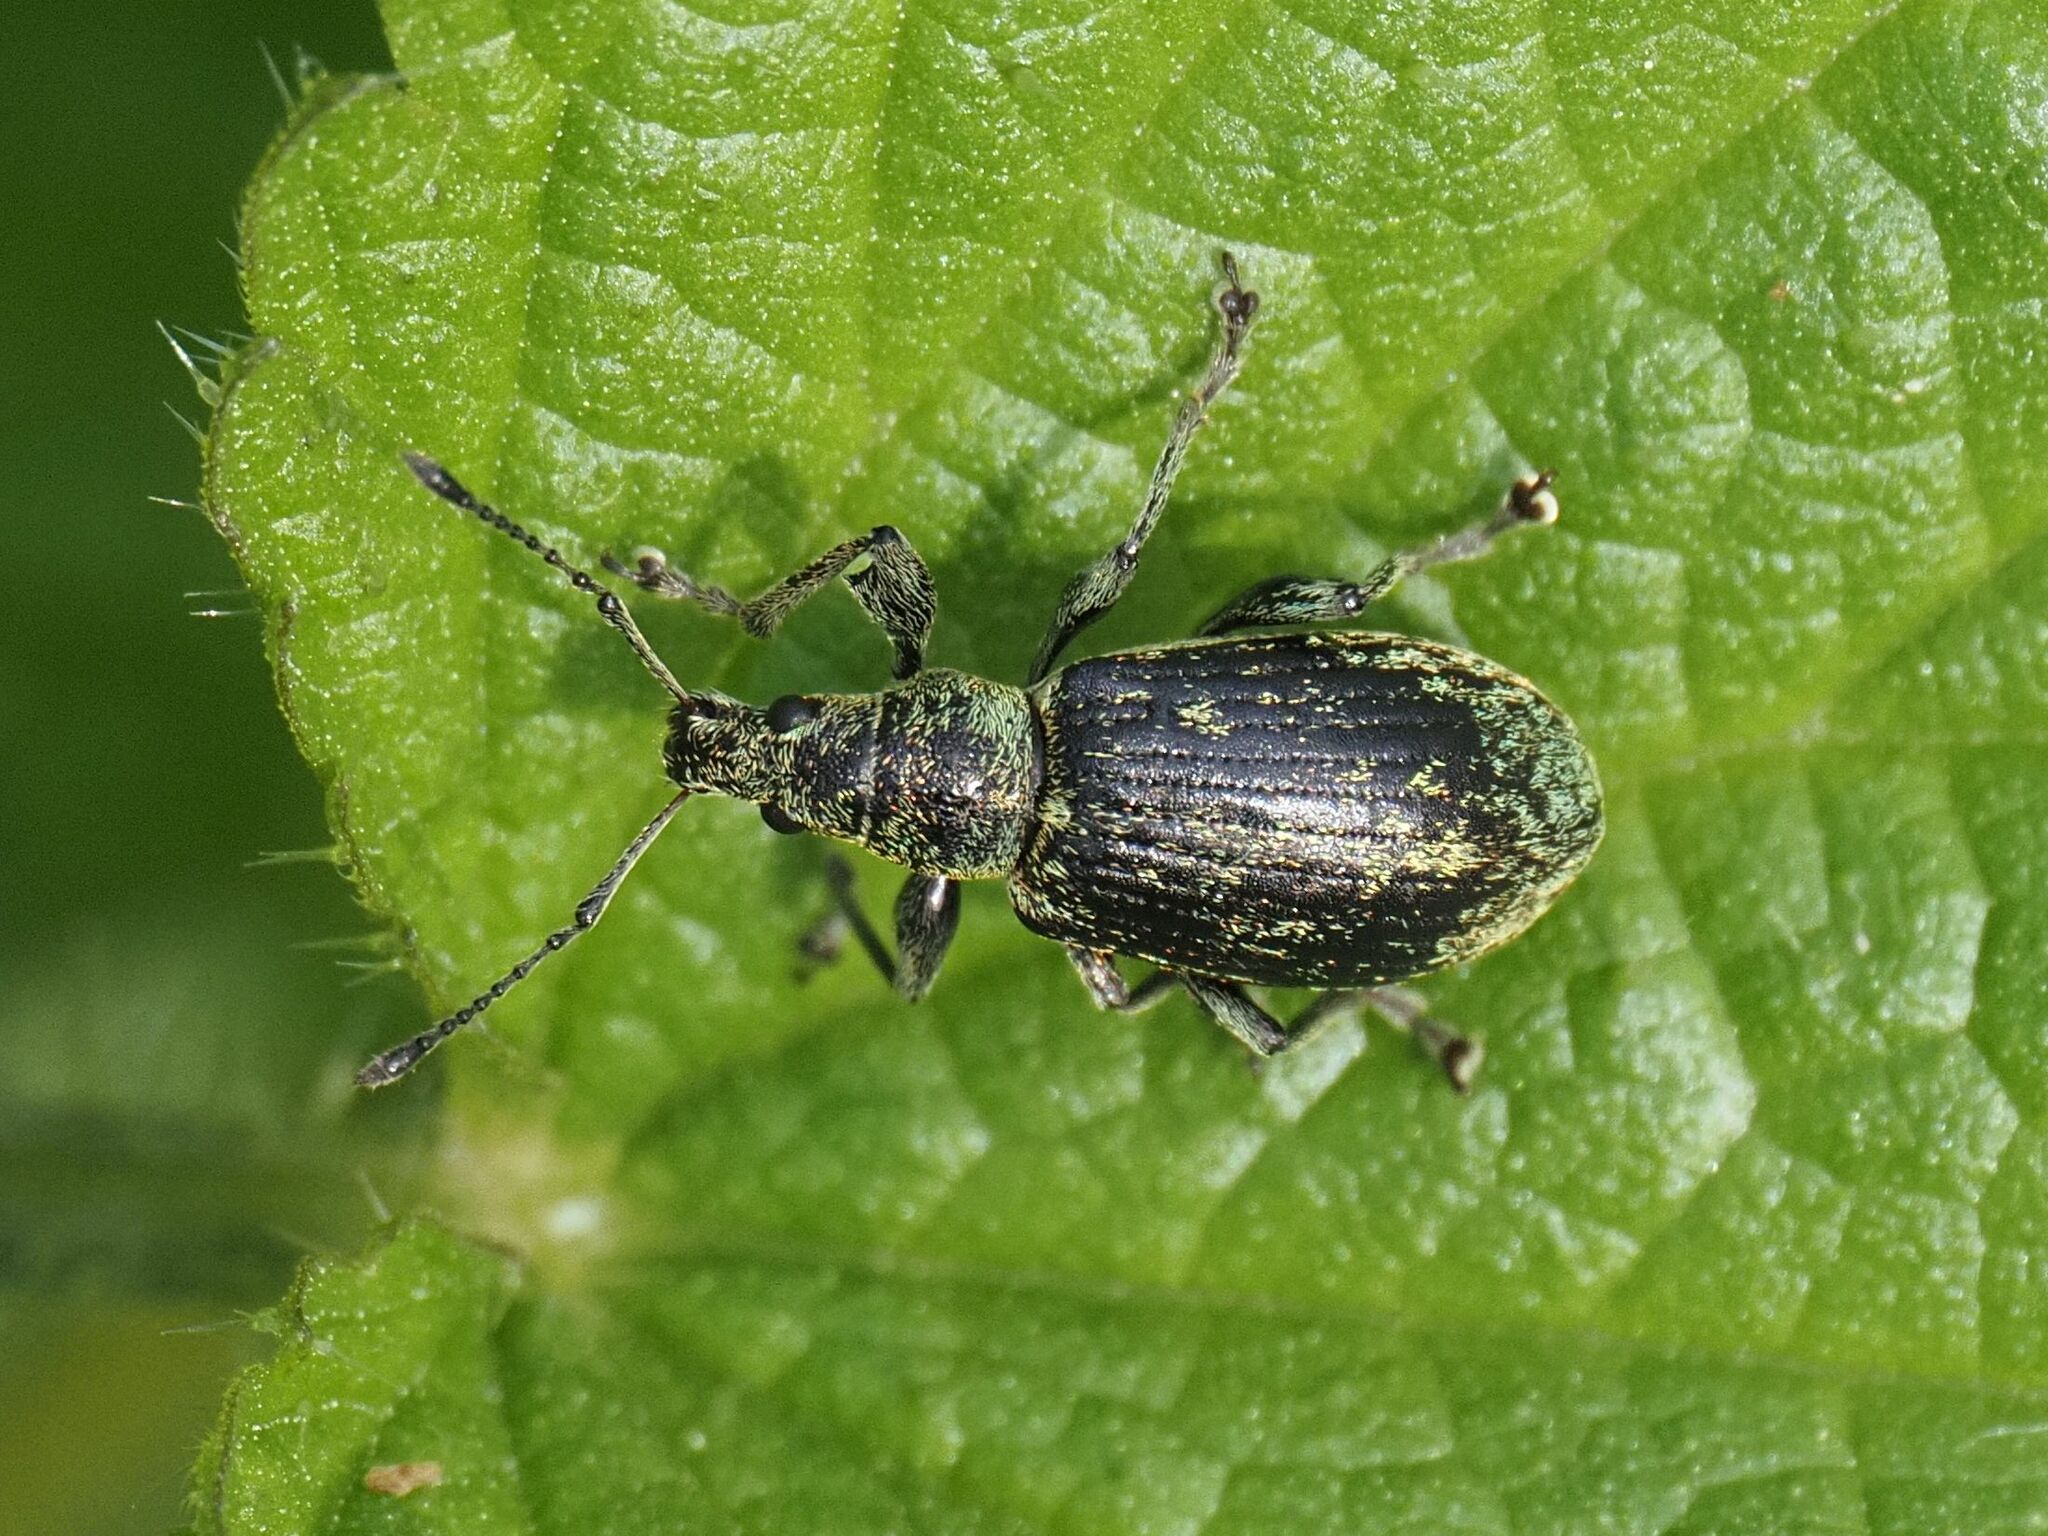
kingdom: Animalia
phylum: Arthropoda
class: Insecta
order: Coleoptera
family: Curculionidae
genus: Phyllobius
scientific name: Phyllobius pomaceus
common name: Green nettle weevil
